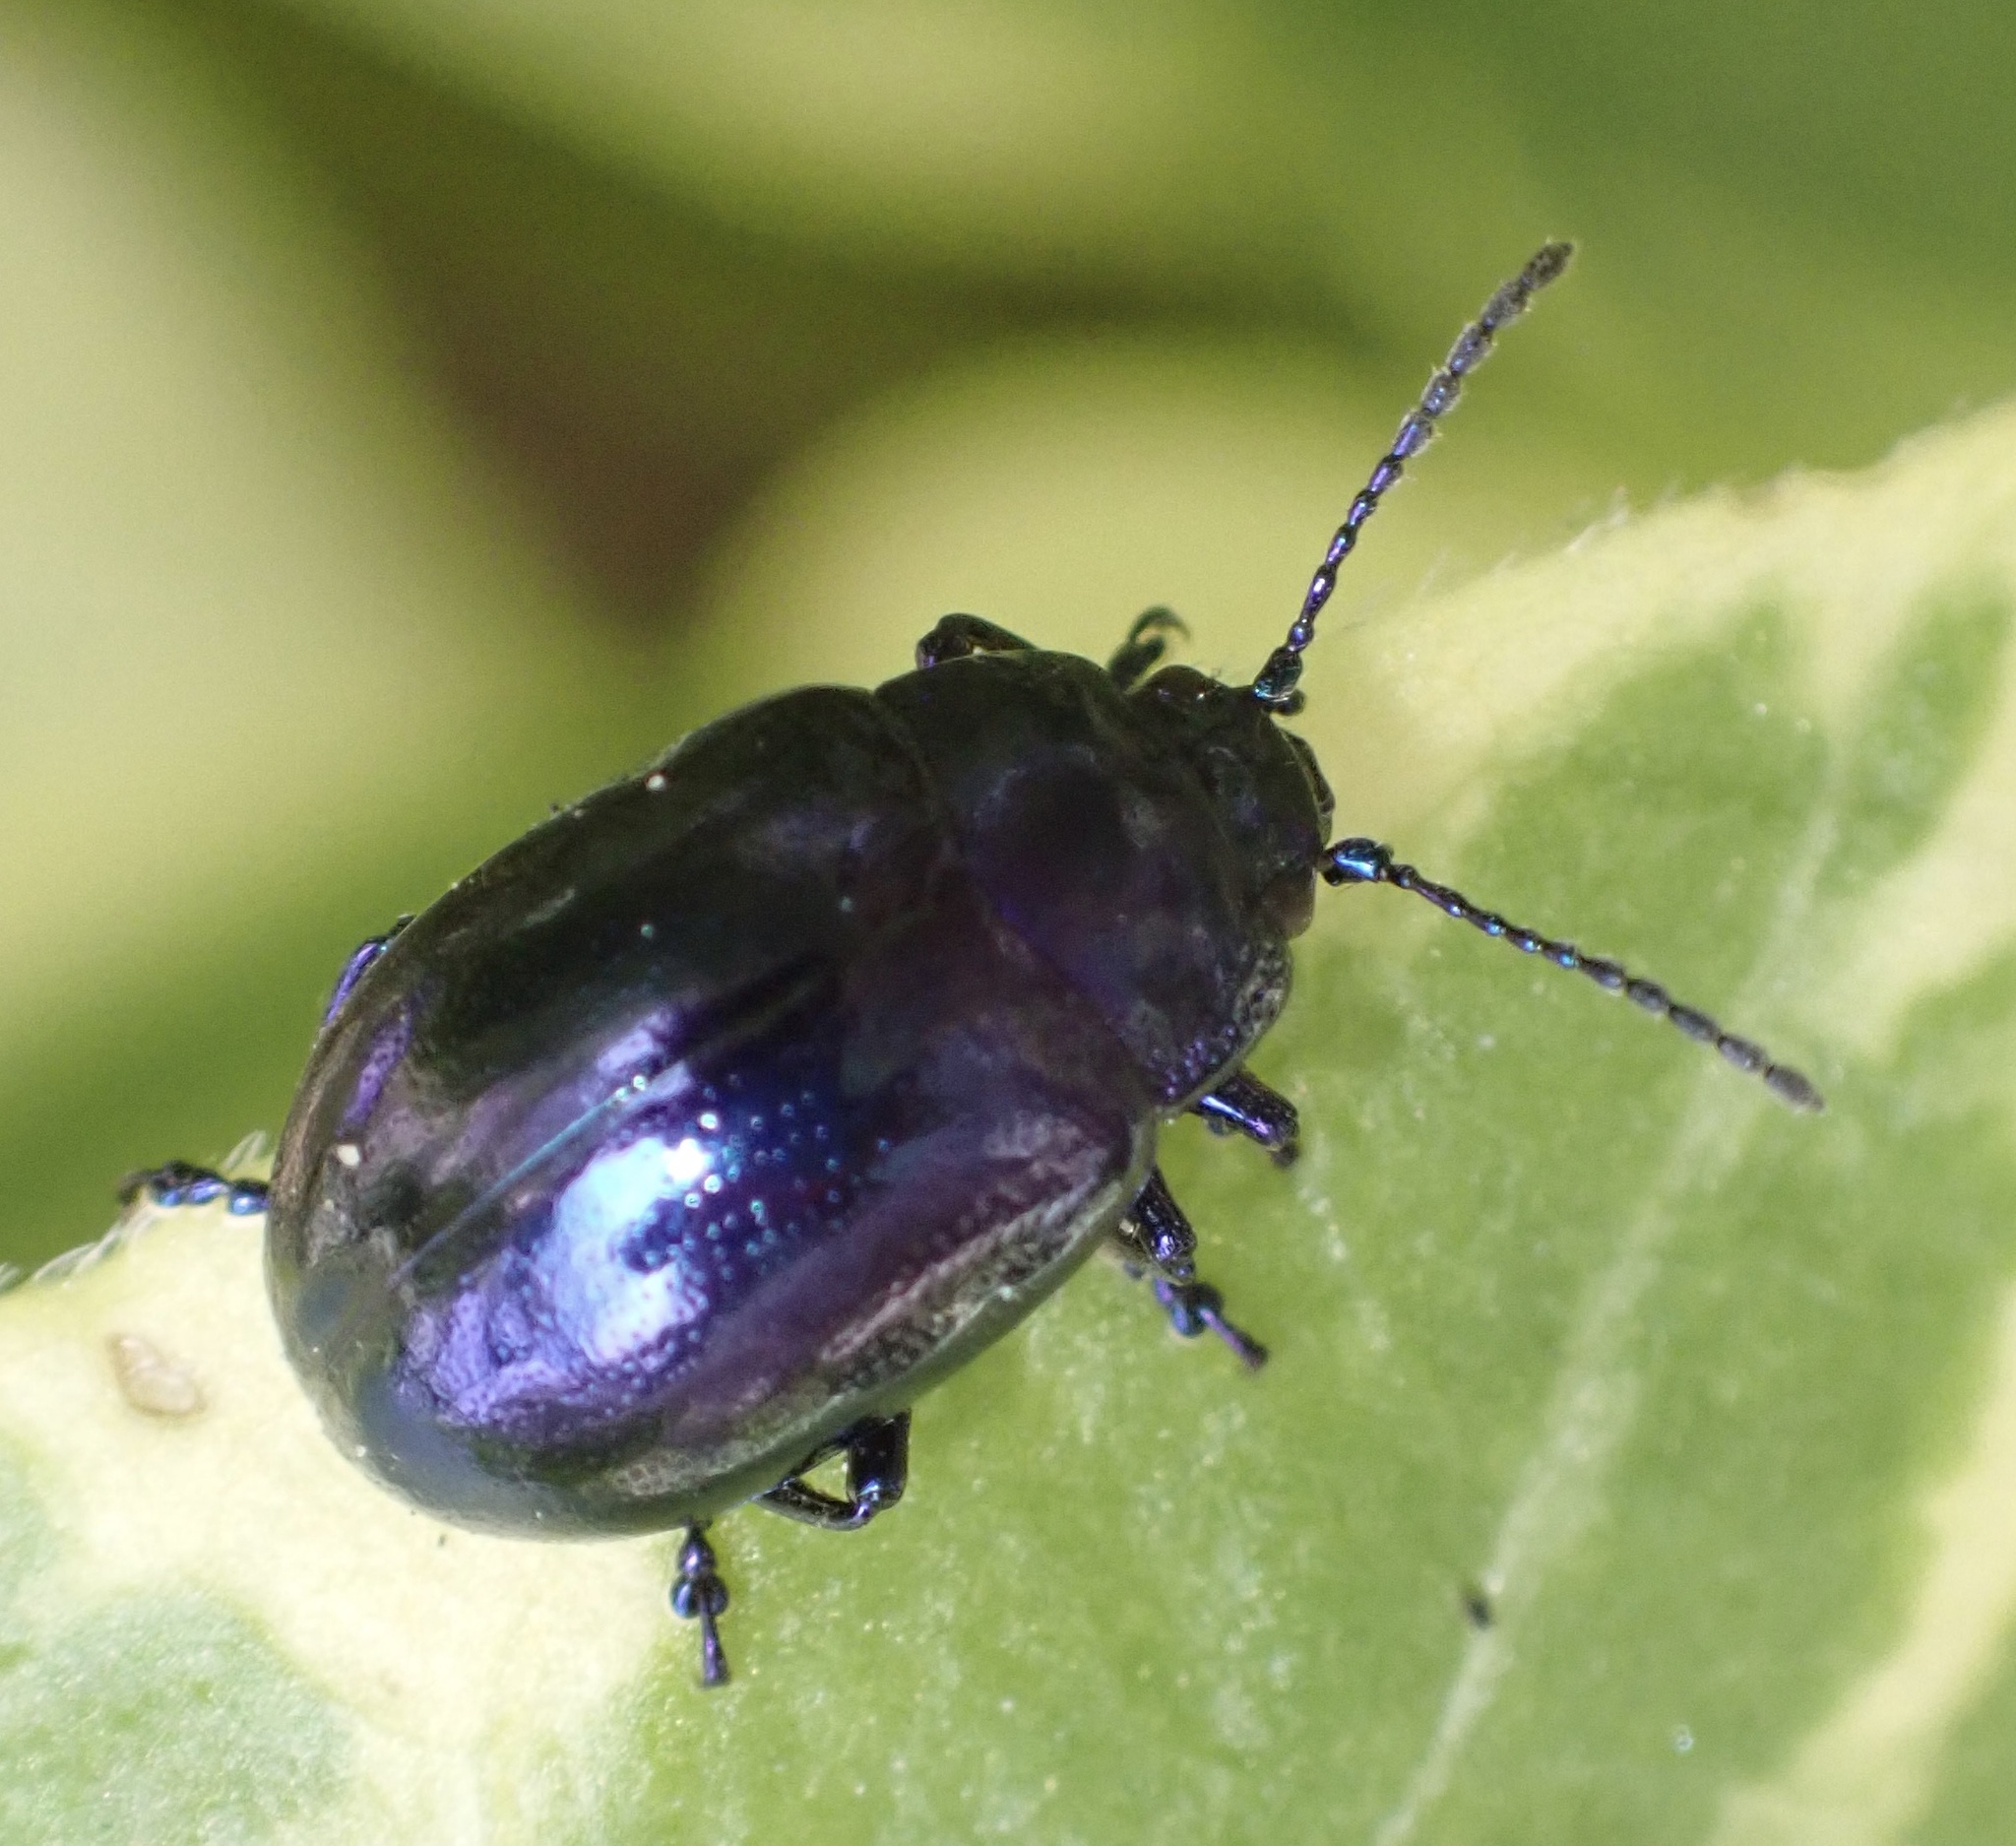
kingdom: Animalia
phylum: Arthropoda
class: Insecta
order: Coleoptera
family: Chrysomelidae
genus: Chrysolina
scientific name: Chrysolina coerulans
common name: Blue mint beetle
